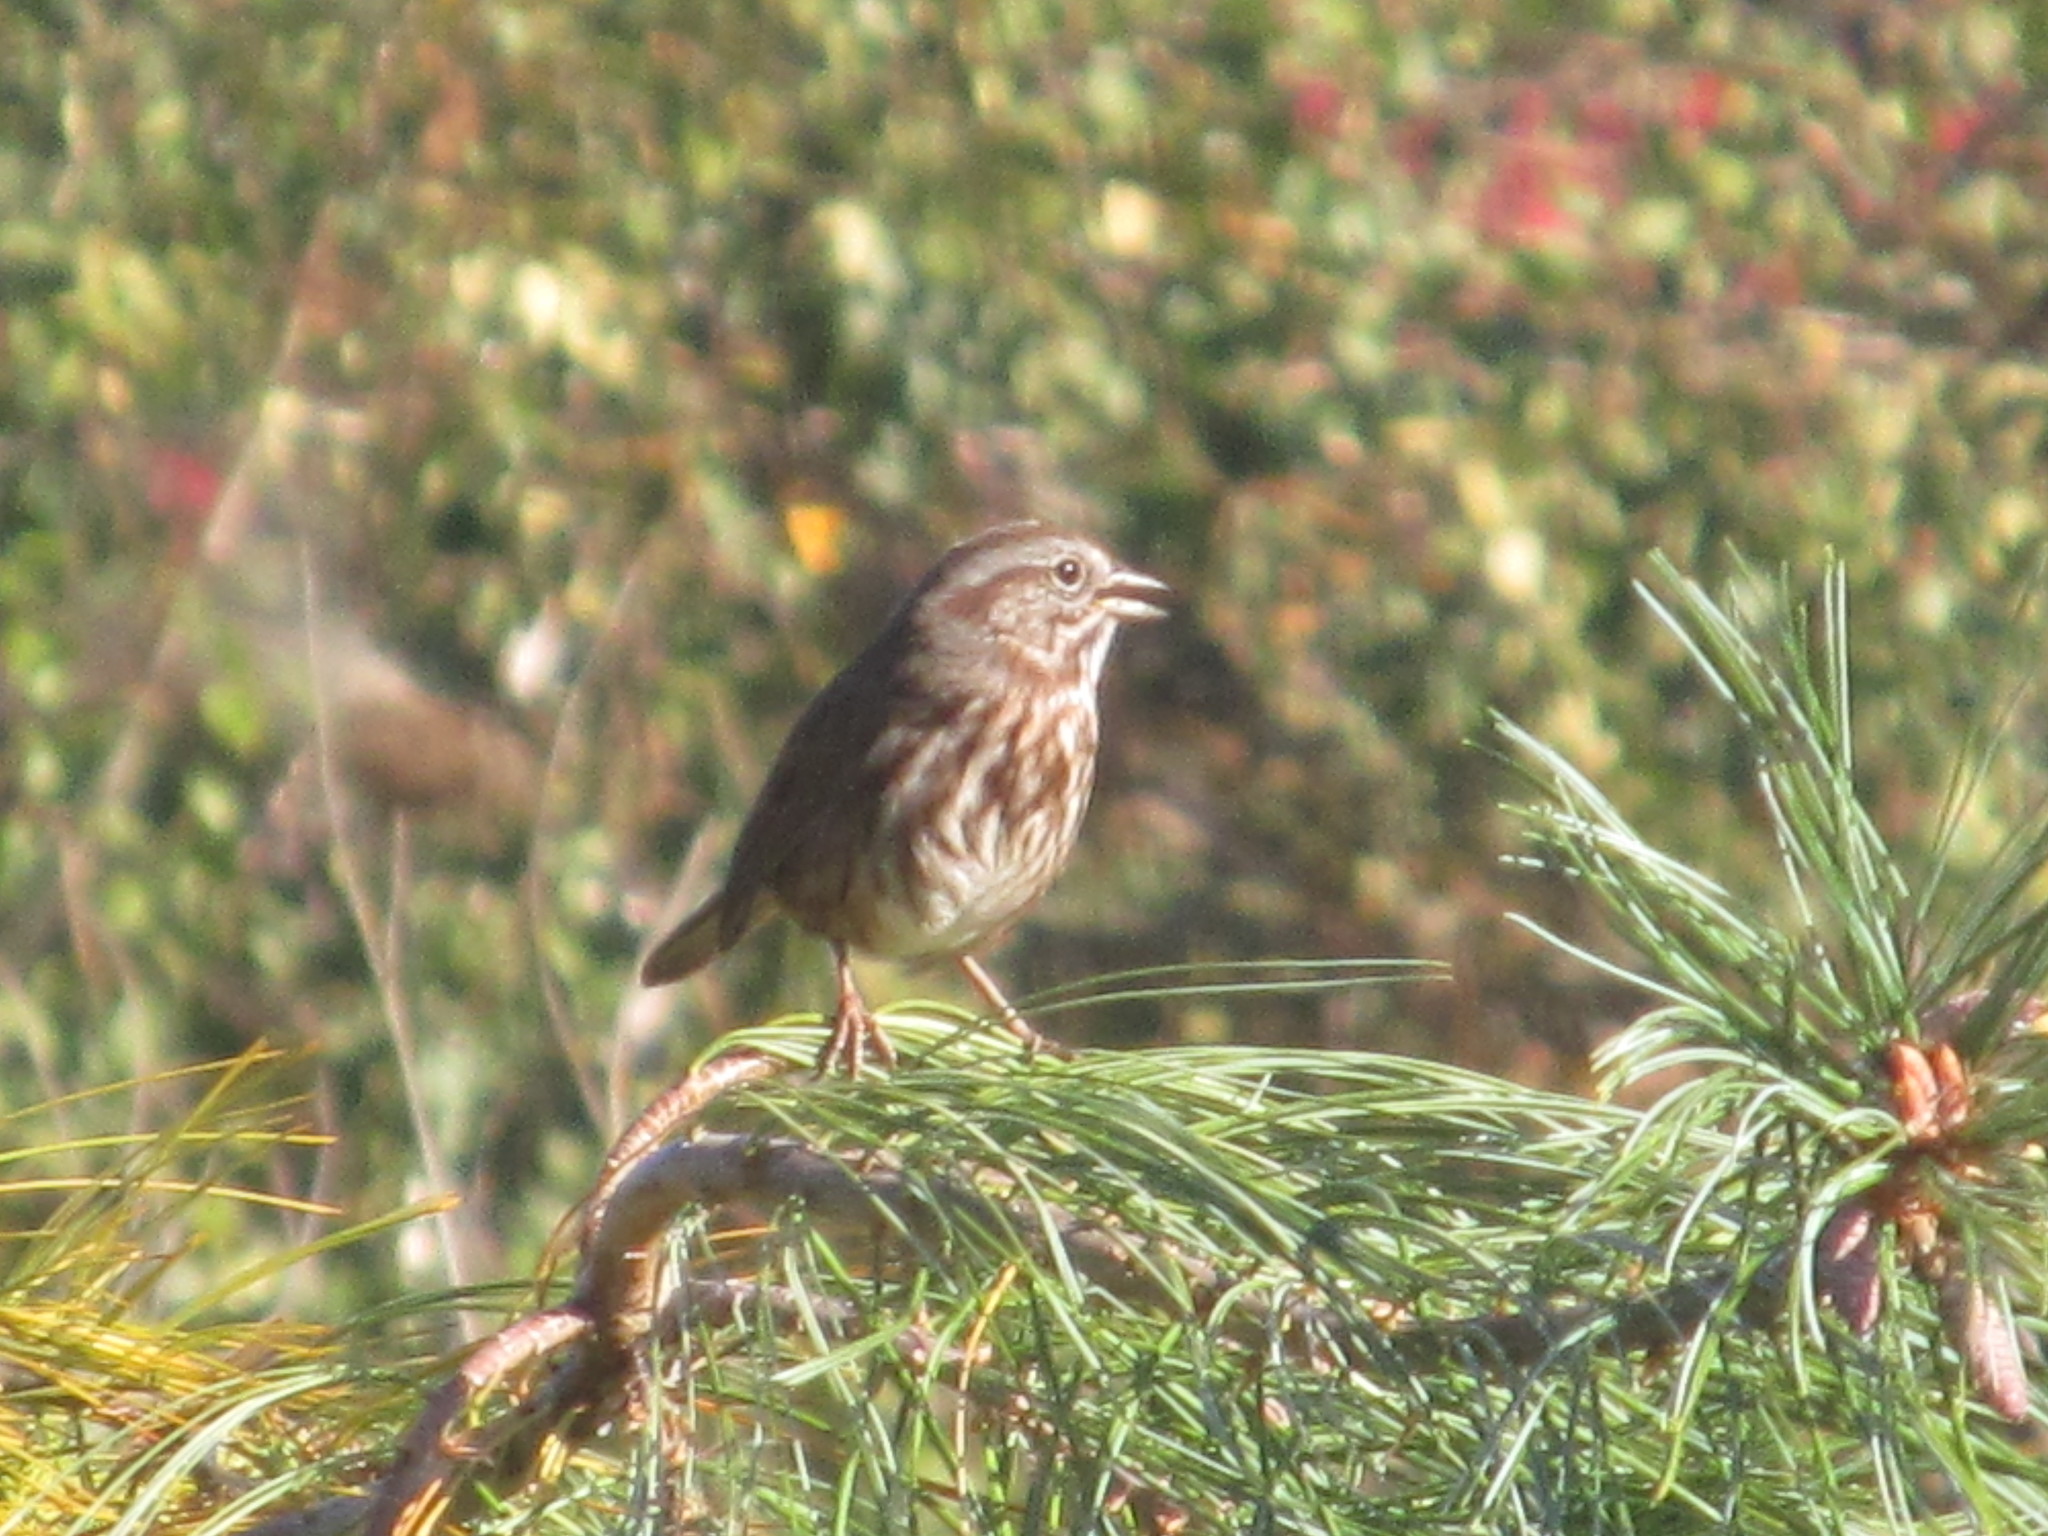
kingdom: Animalia
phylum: Chordata
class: Aves
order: Passeriformes
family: Passerellidae
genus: Melospiza
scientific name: Melospiza melodia
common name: Song sparrow
